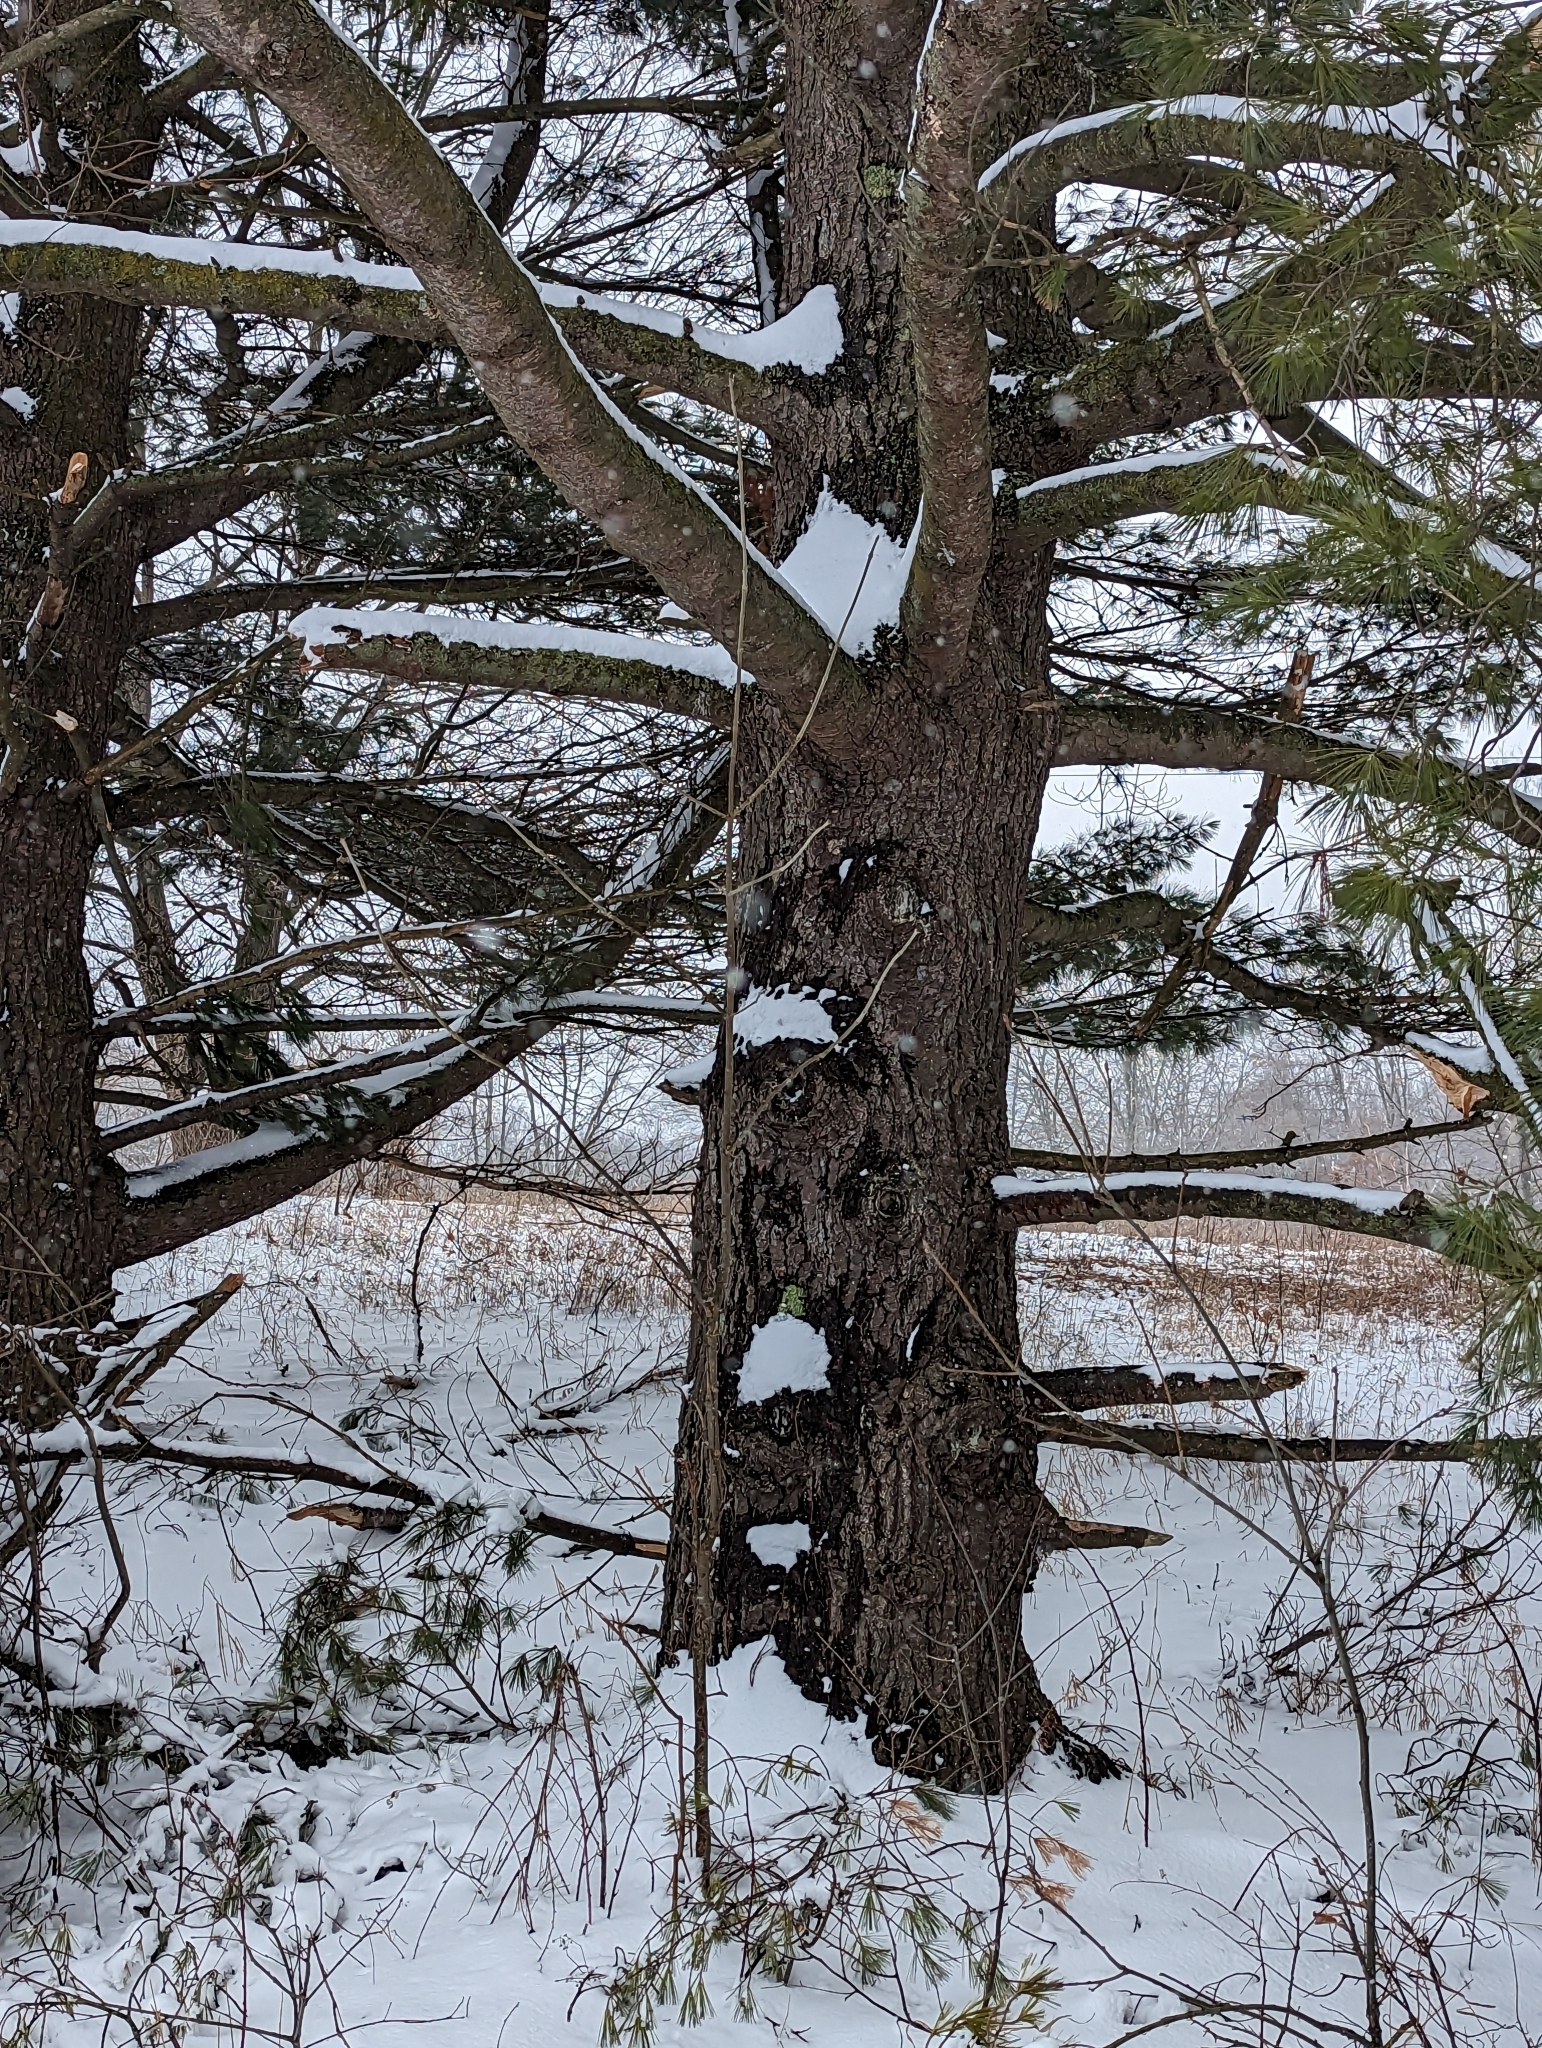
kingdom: Plantae
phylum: Tracheophyta
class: Pinopsida
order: Pinales
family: Pinaceae
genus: Pinus
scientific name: Pinus strobus
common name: Weymouth pine
